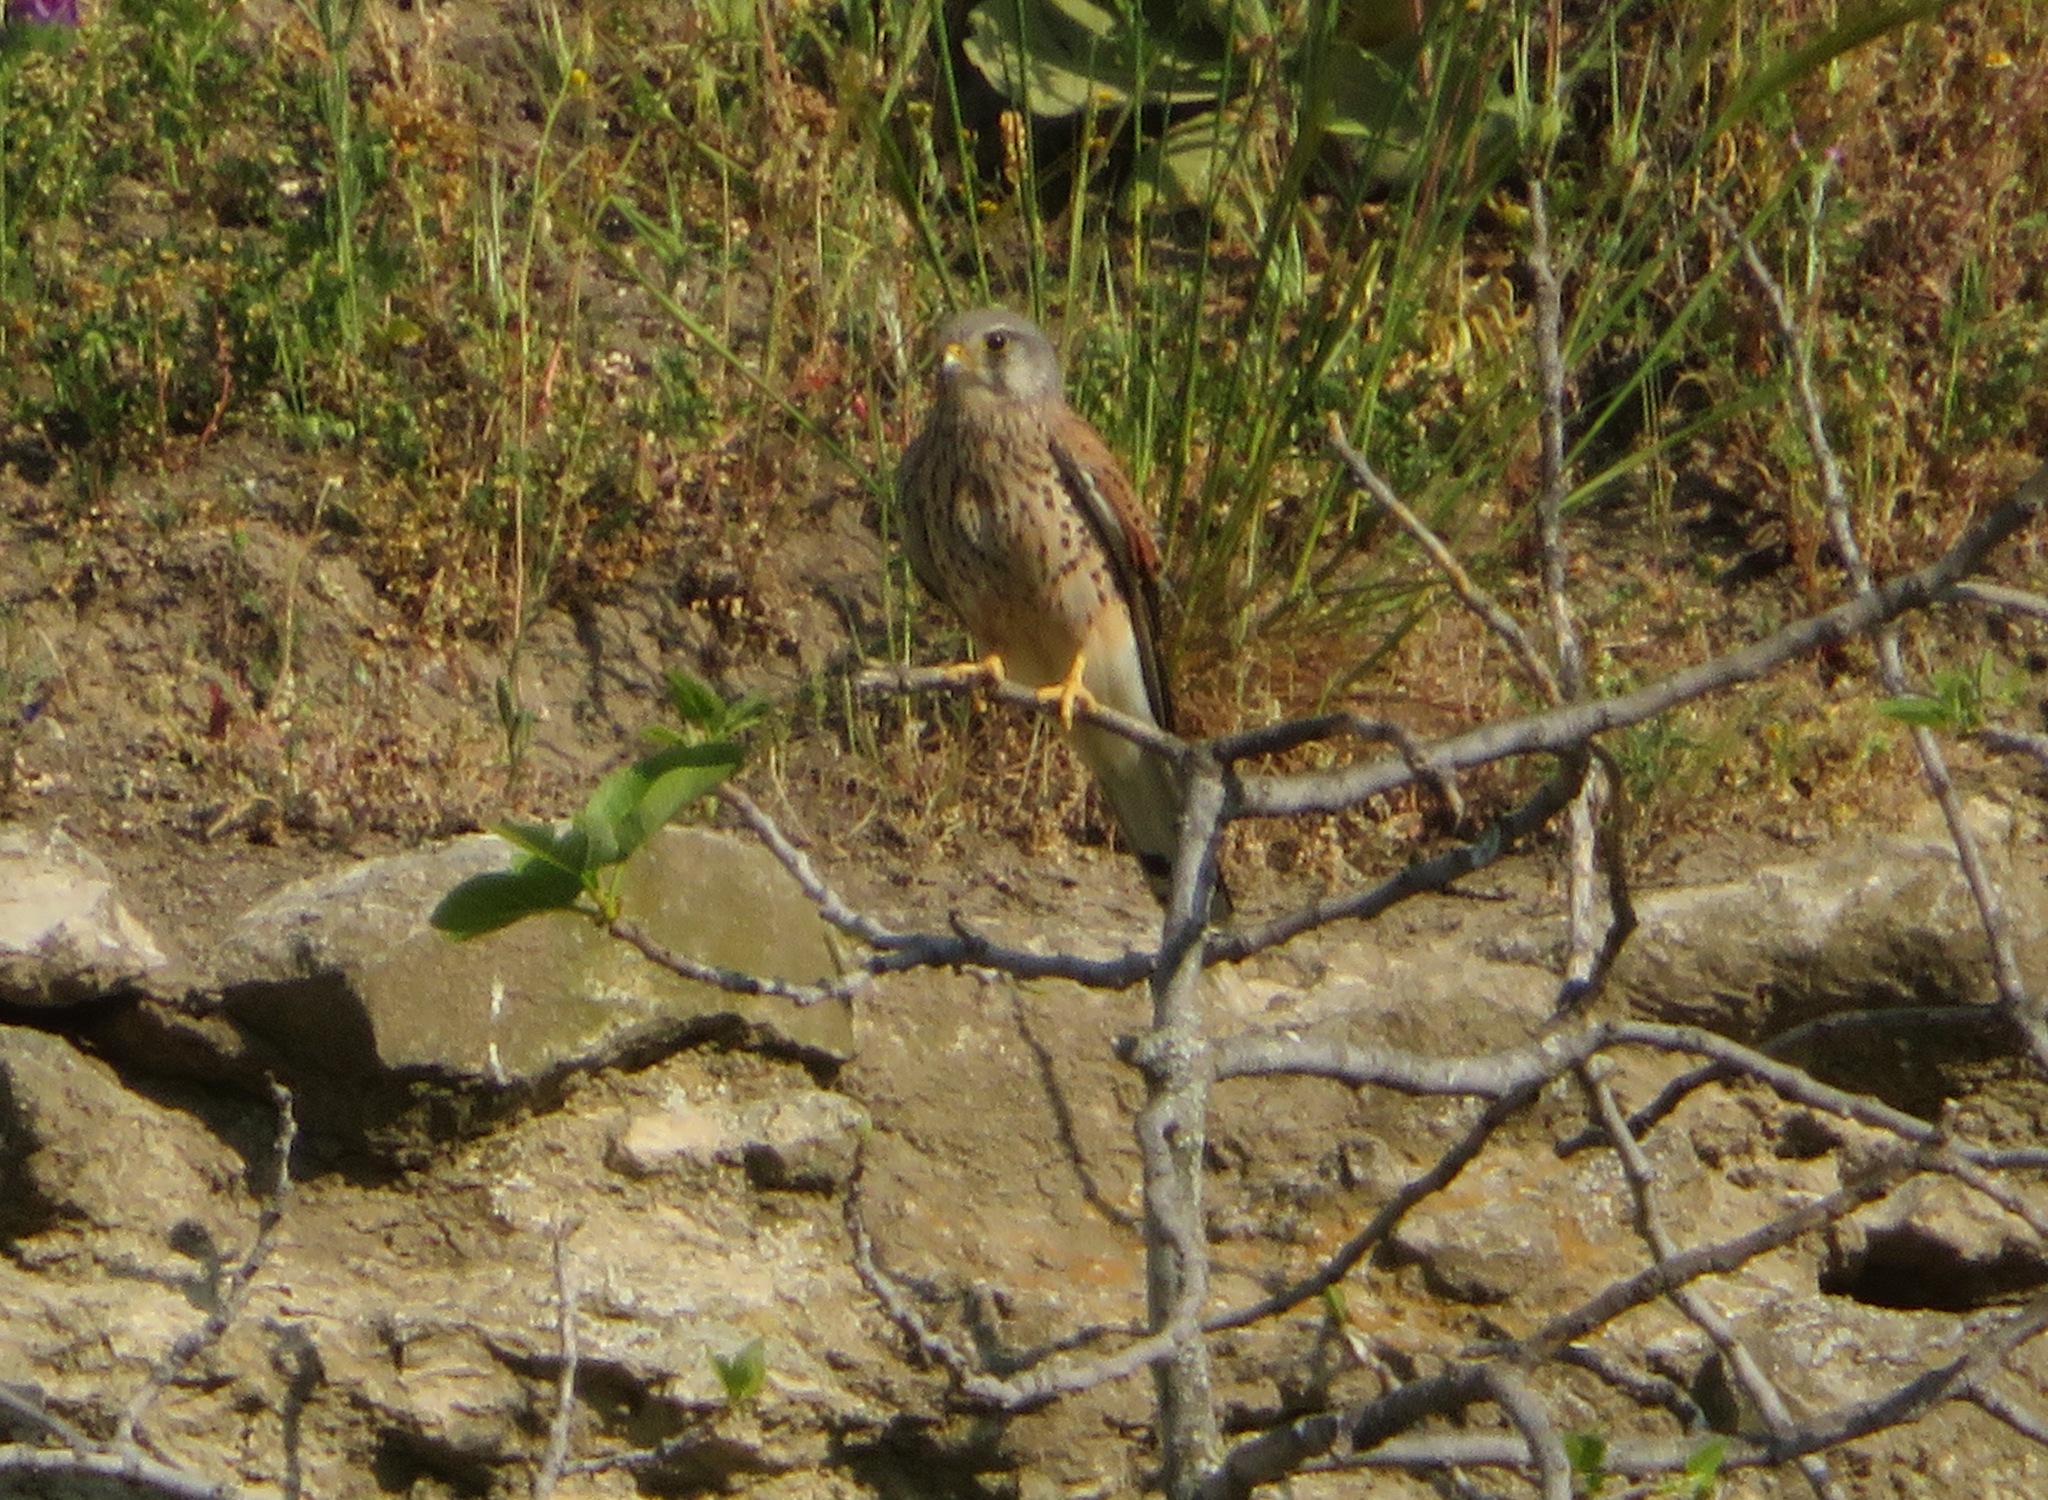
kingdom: Animalia
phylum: Chordata
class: Aves
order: Falconiformes
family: Falconidae
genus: Falco
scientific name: Falco tinnunculus
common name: Common kestrel
